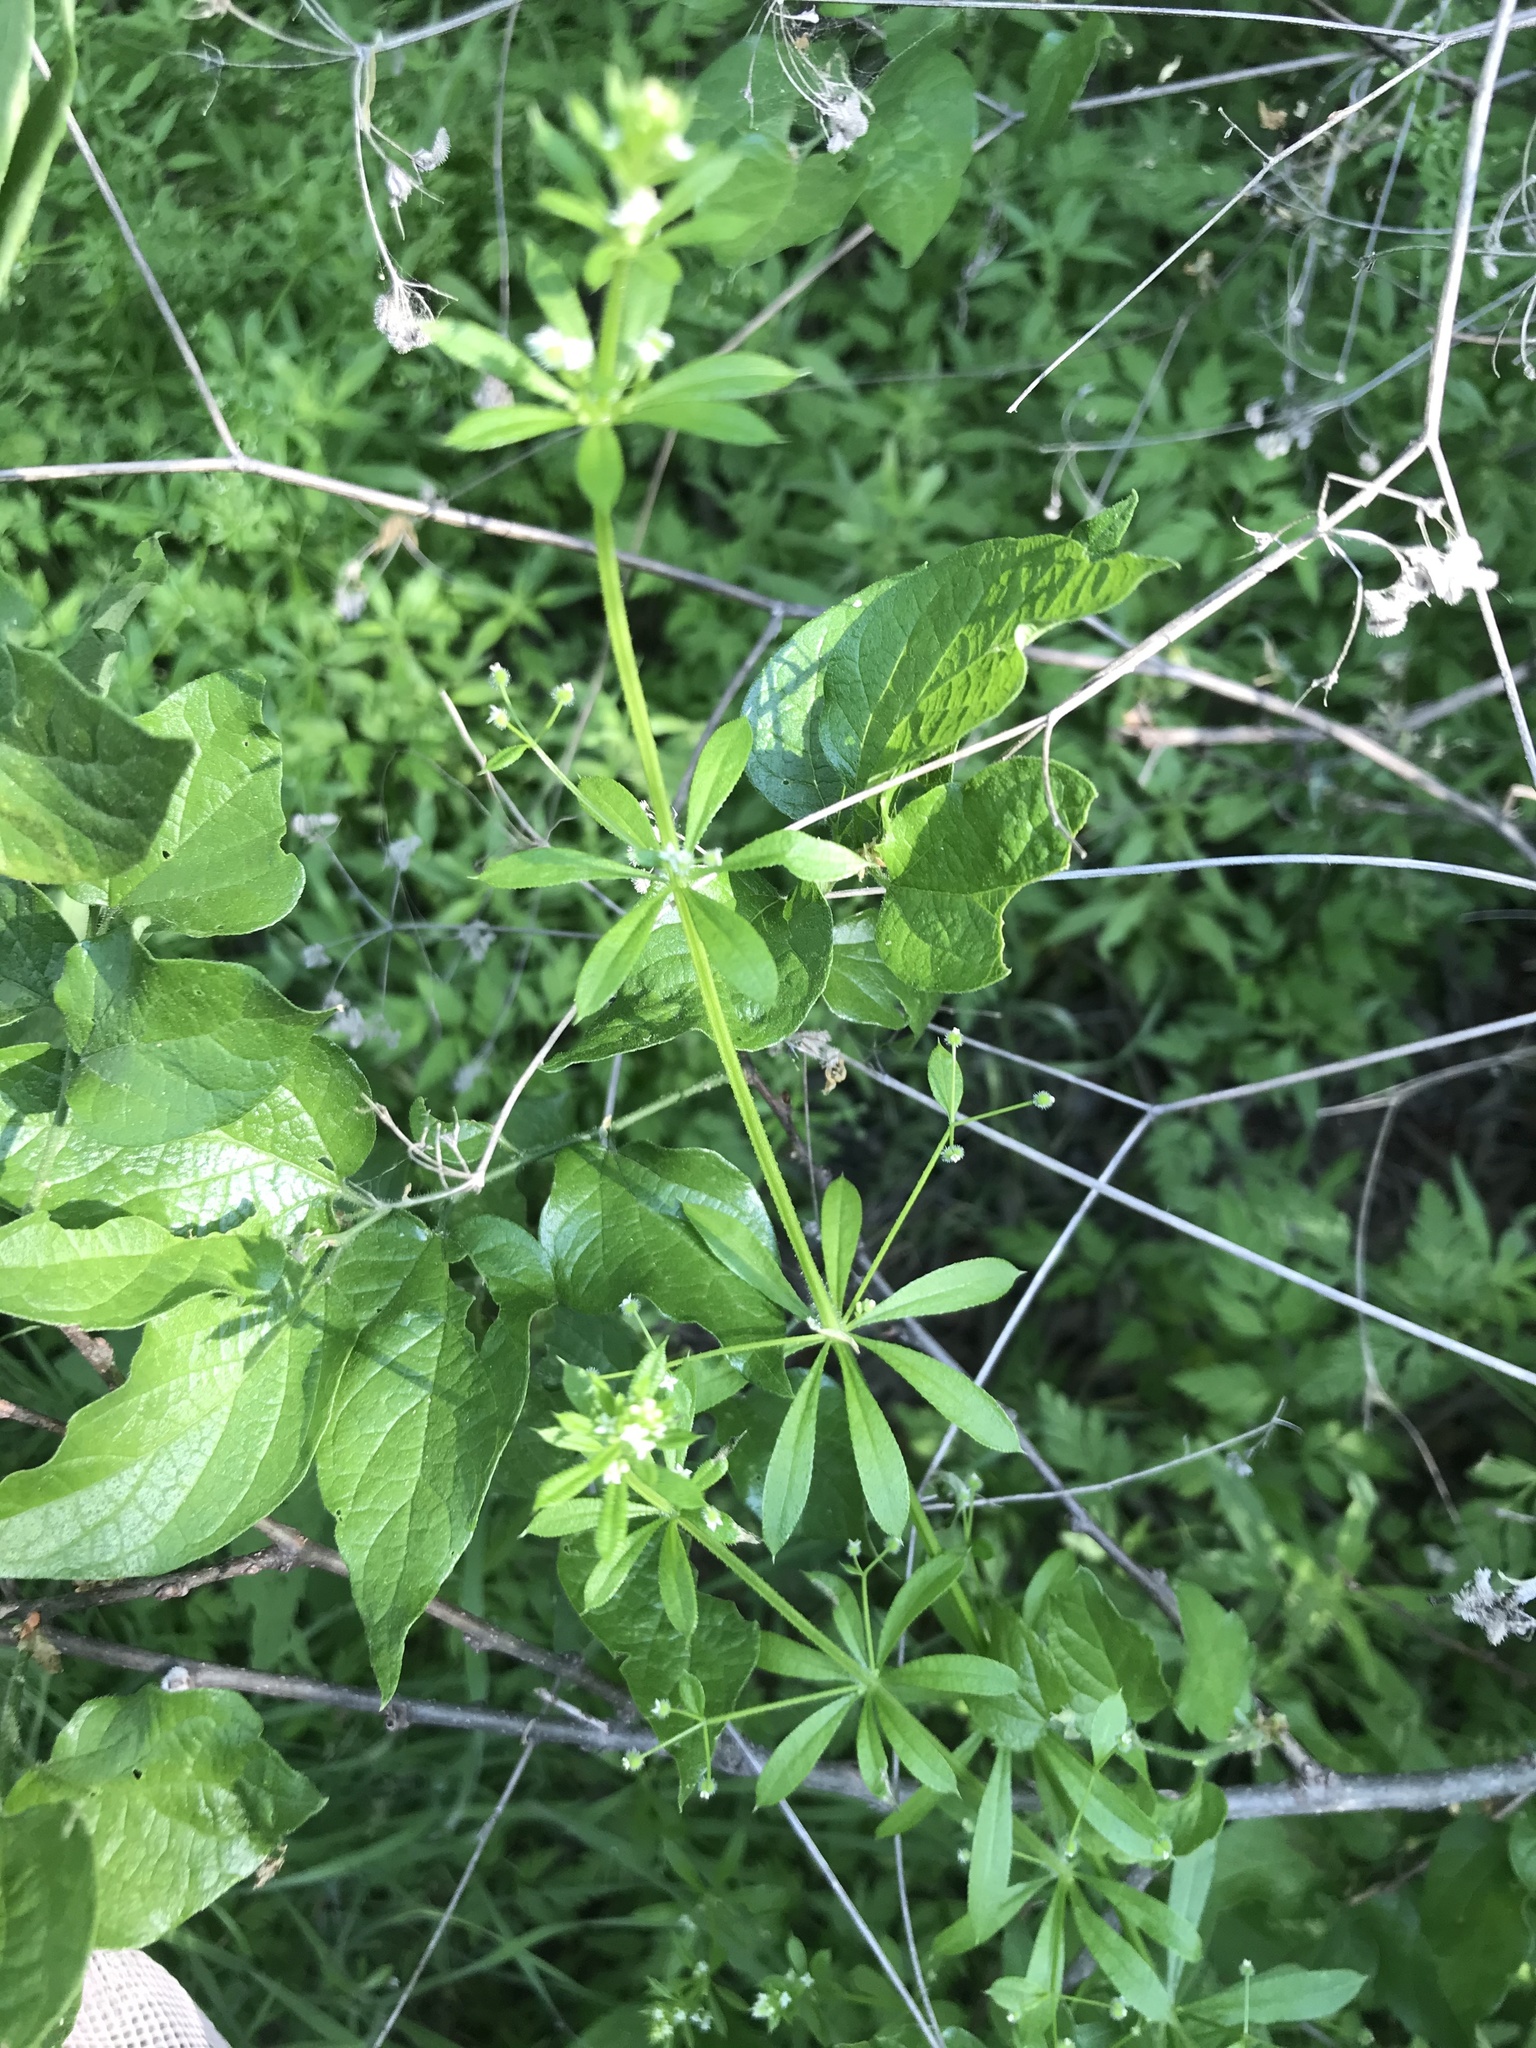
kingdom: Plantae
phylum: Tracheophyta
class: Magnoliopsida
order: Gentianales
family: Rubiaceae
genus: Galium
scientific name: Galium aparine
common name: Cleavers
